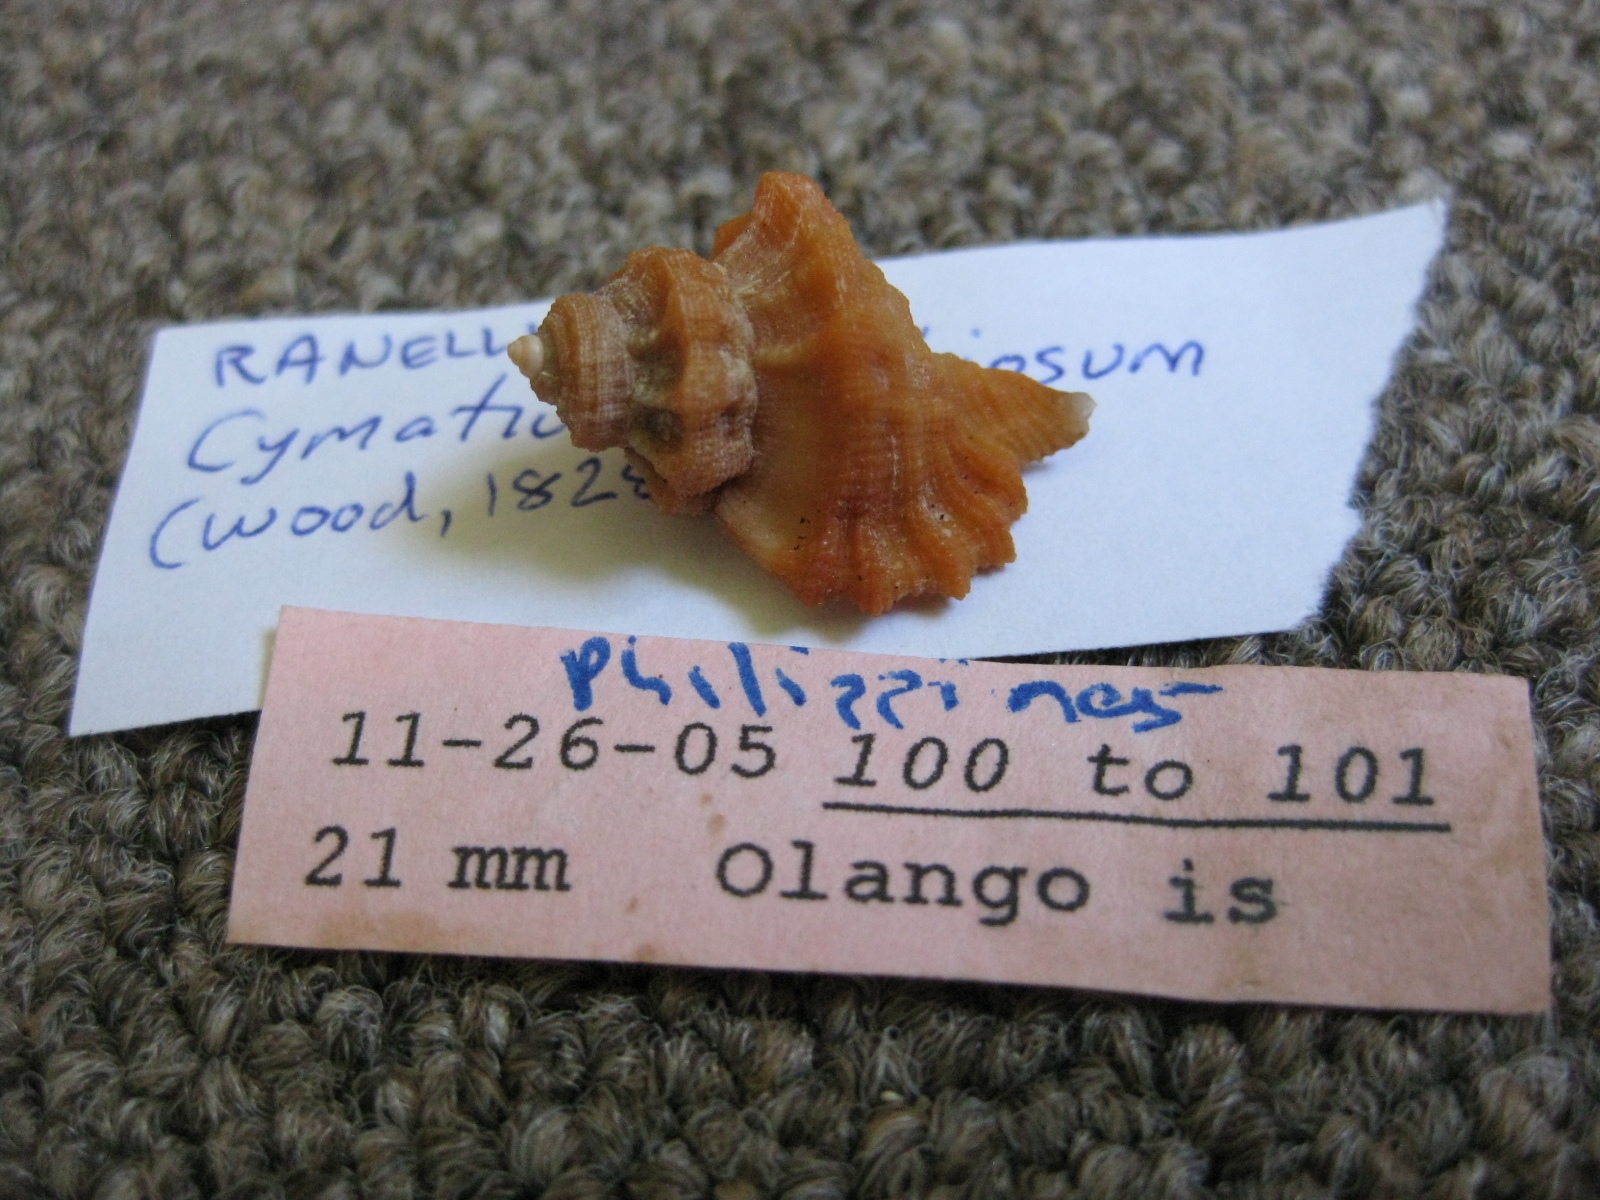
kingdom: Animalia
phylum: Mollusca
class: Gastropoda
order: Littorinimorpha
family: Cymatiidae
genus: Turritriton
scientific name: Turritriton labiosus
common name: Lip triton
